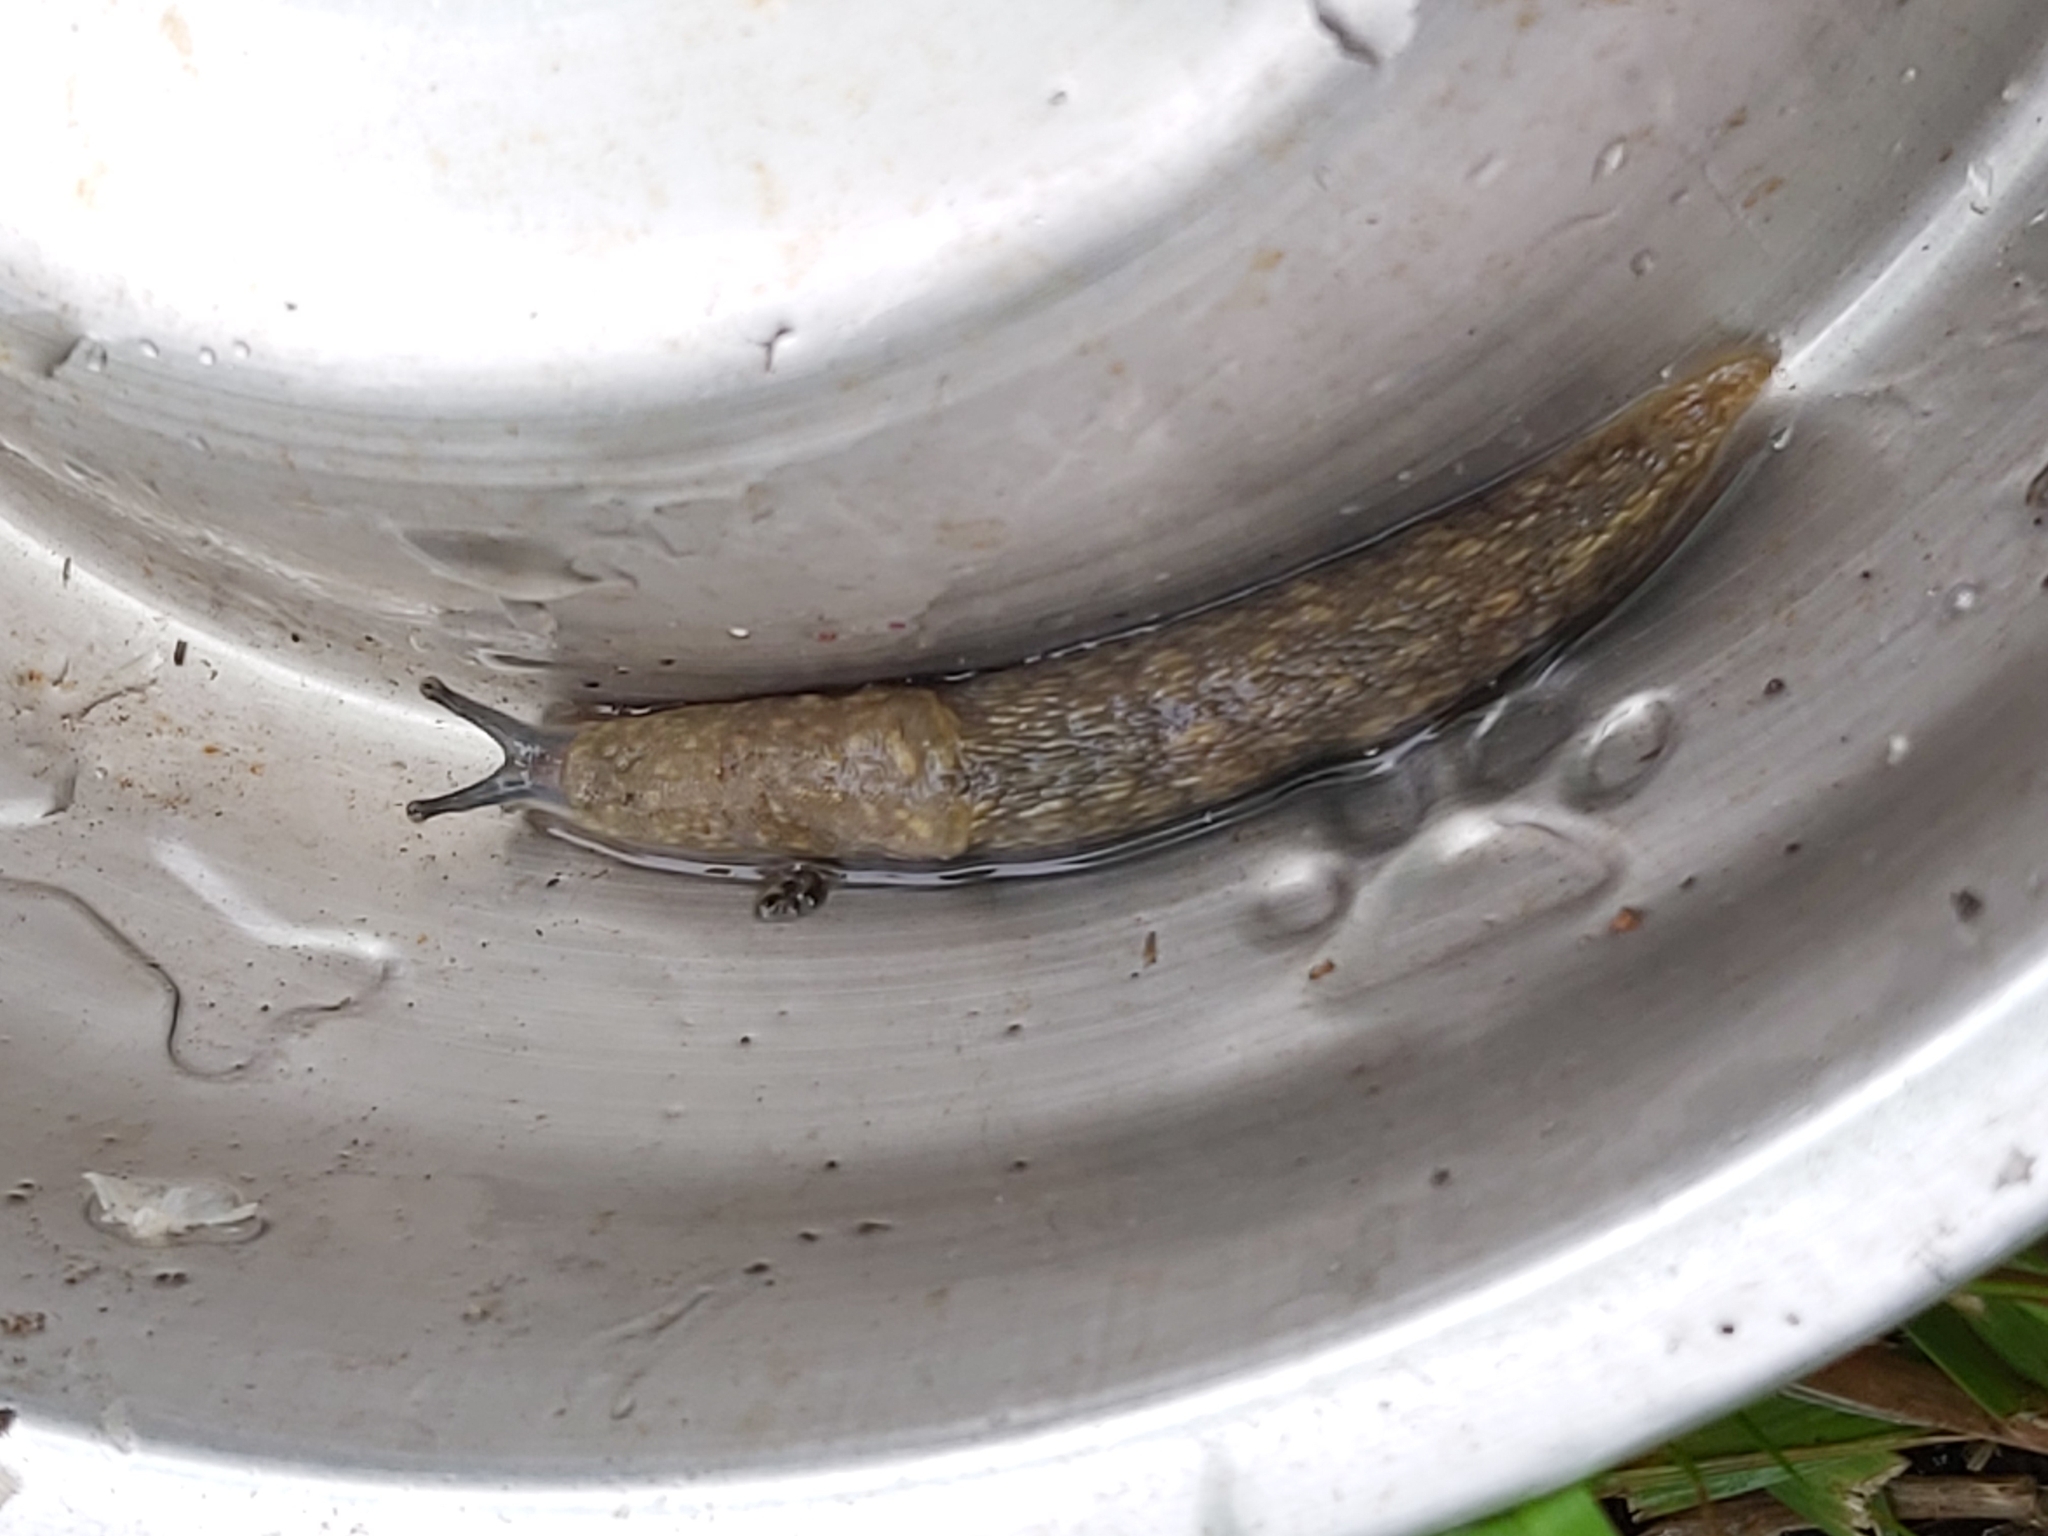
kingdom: Animalia
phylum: Mollusca
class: Gastropoda
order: Stylommatophora
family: Limacidae
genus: Limacus
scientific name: Limacus flavus
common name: Yellow gardenslug
